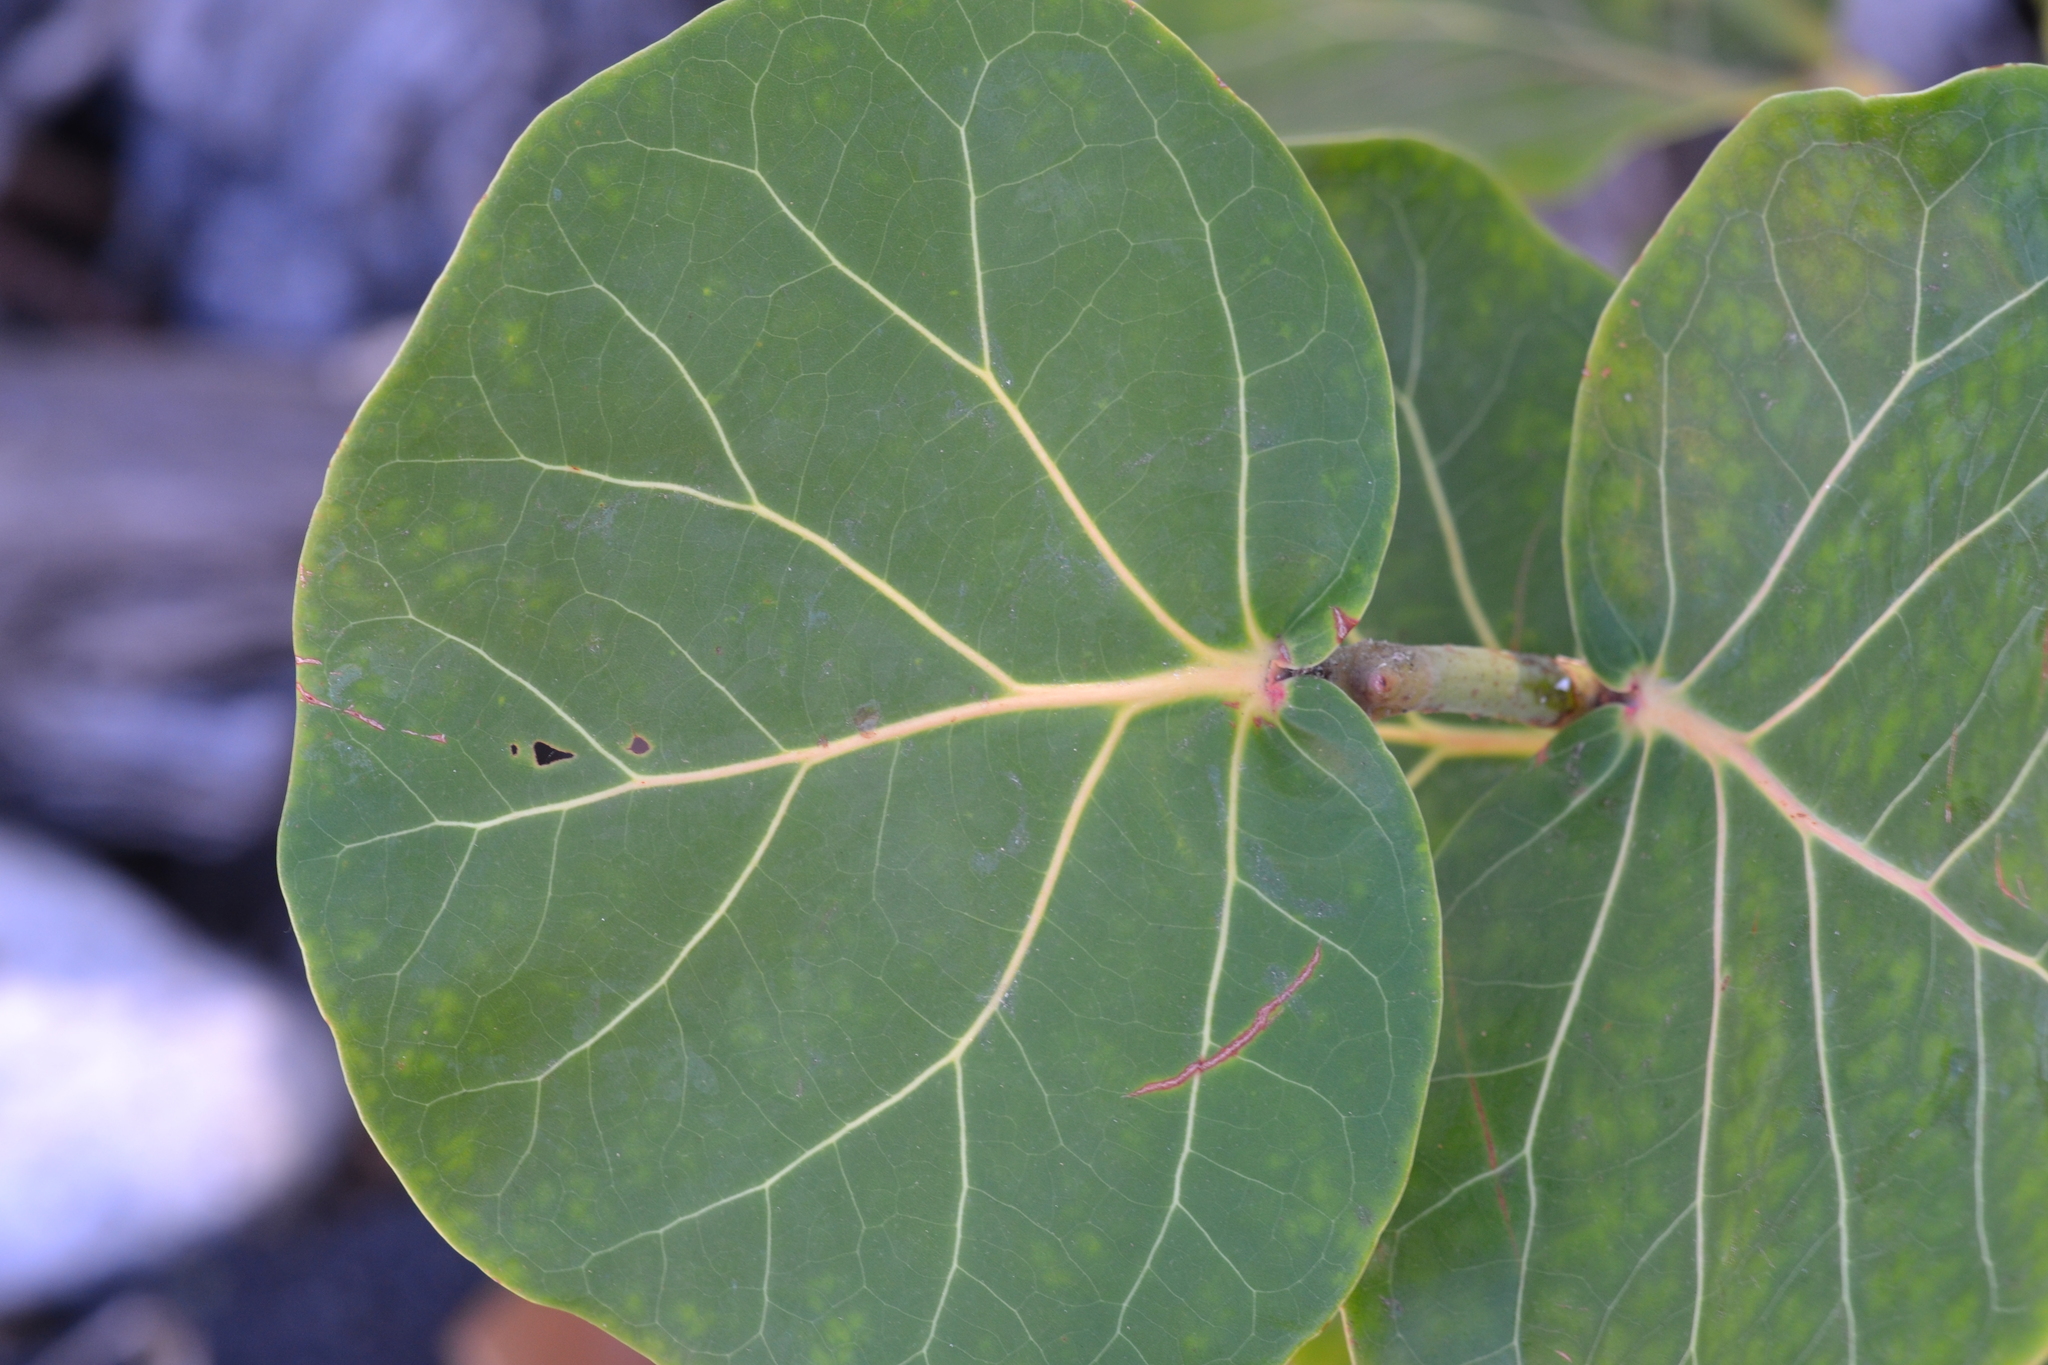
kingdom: Plantae
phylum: Tracheophyta
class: Magnoliopsida
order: Caryophyllales
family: Polygonaceae
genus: Coccoloba
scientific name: Coccoloba uvifera
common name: Seagrape
